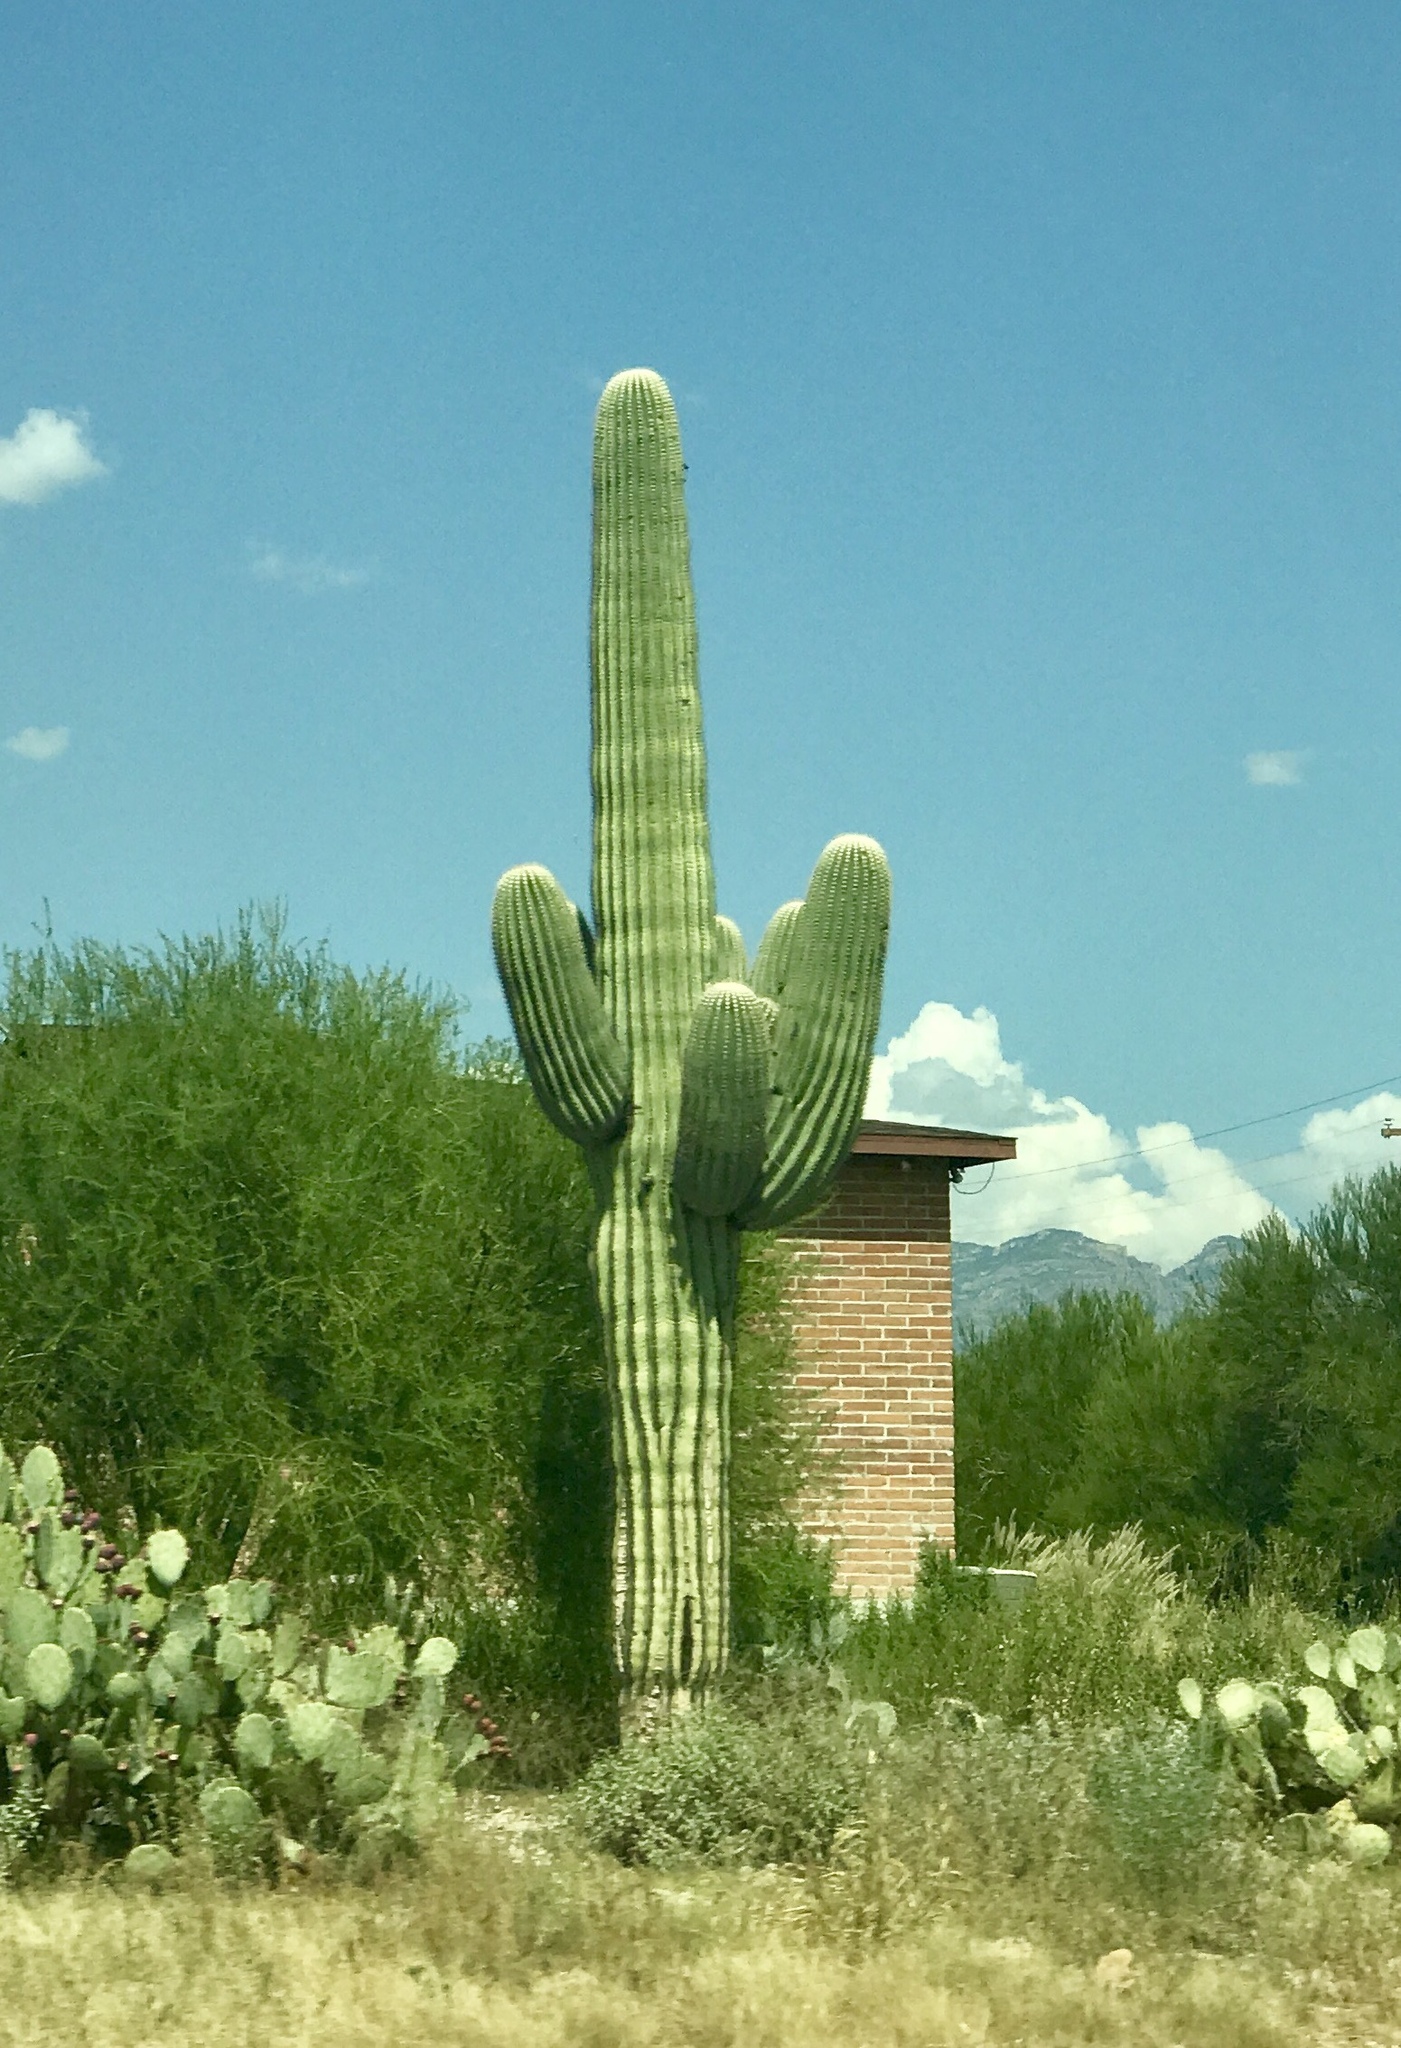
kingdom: Plantae
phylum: Tracheophyta
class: Magnoliopsida
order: Caryophyllales
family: Cactaceae
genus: Carnegiea
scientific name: Carnegiea gigantea
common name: Saguaro
